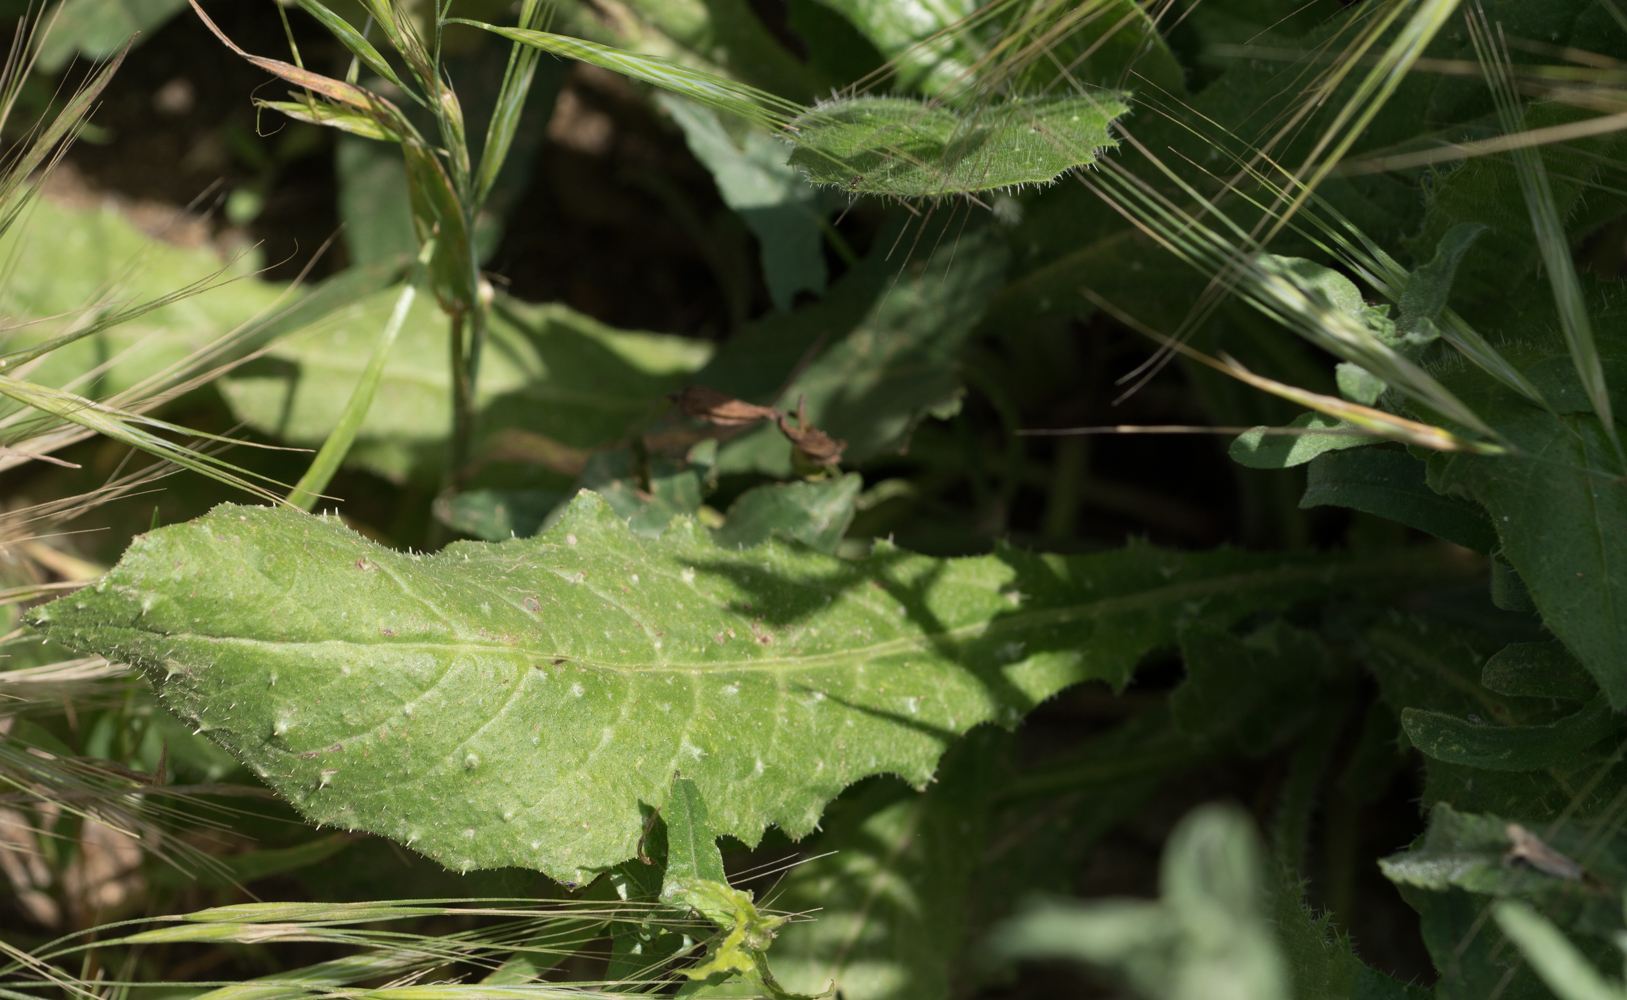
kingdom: Plantae
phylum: Tracheophyta
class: Magnoliopsida
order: Asterales
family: Asteraceae
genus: Helminthotheca
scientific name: Helminthotheca echioides
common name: Ox-tongue
